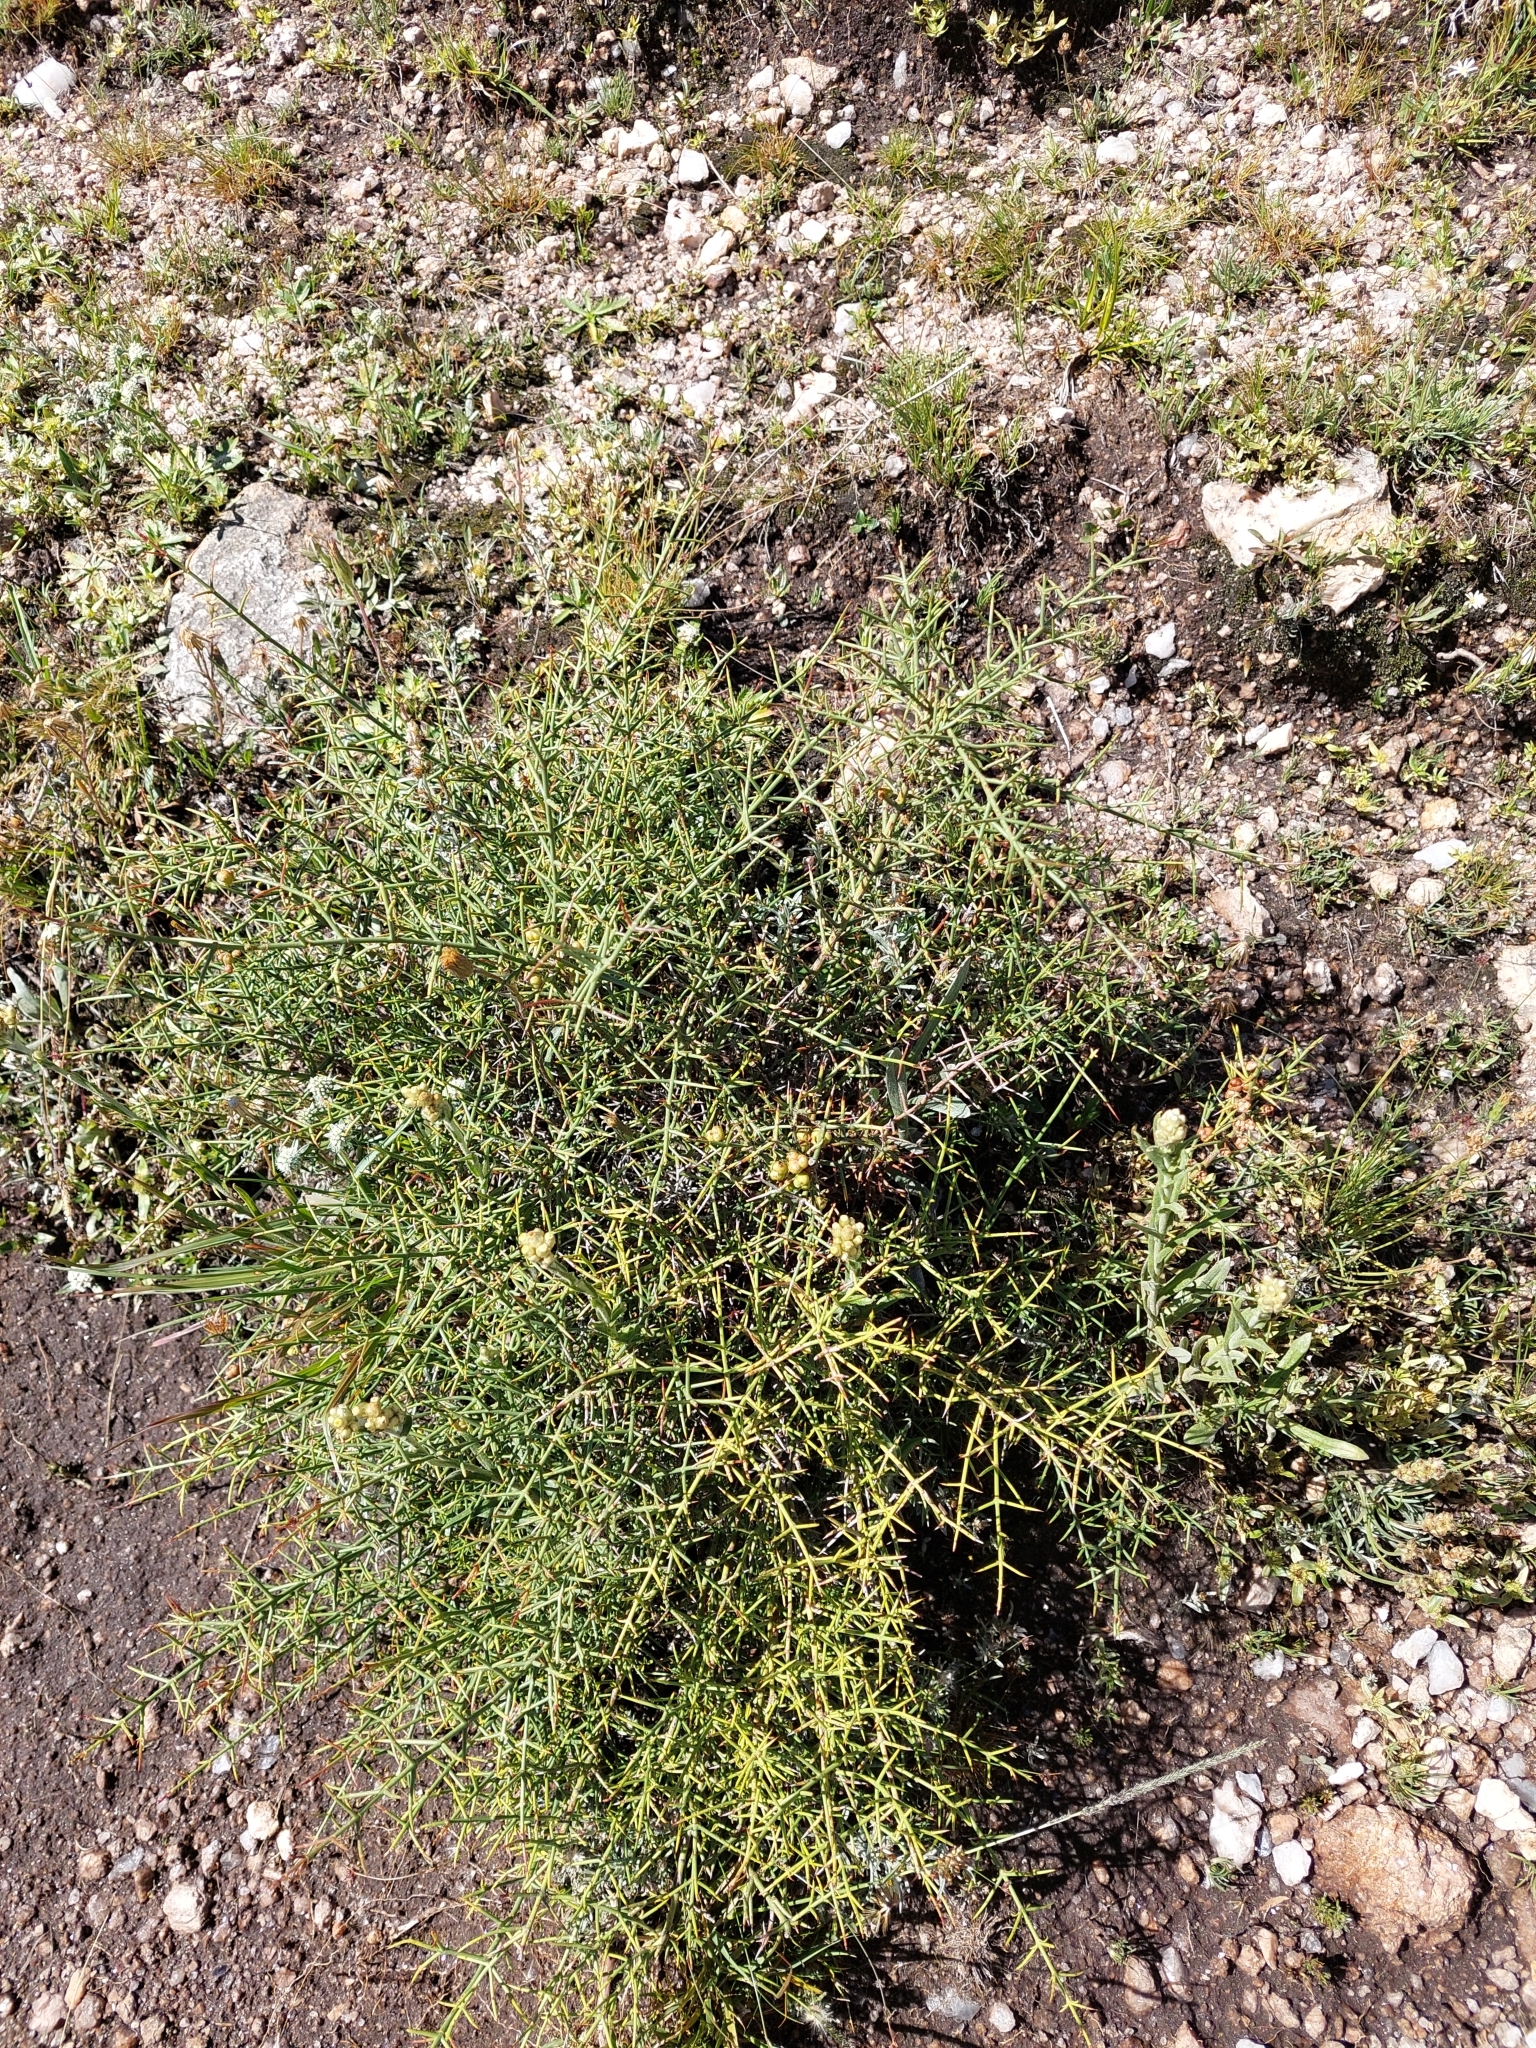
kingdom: Plantae
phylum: Tracheophyta
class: Magnoliopsida
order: Rosales
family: Rhamnaceae
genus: Discaria
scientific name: Discaria americana
